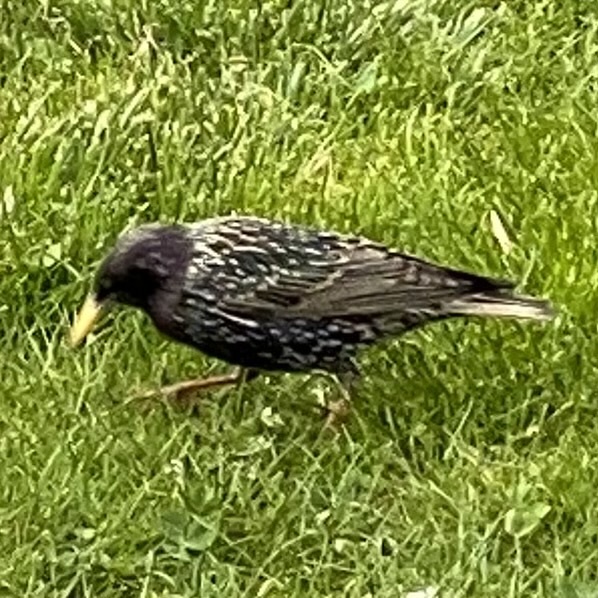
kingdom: Animalia
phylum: Chordata
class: Aves
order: Passeriformes
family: Sturnidae
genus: Sturnus
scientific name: Sturnus vulgaris
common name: Common starling
